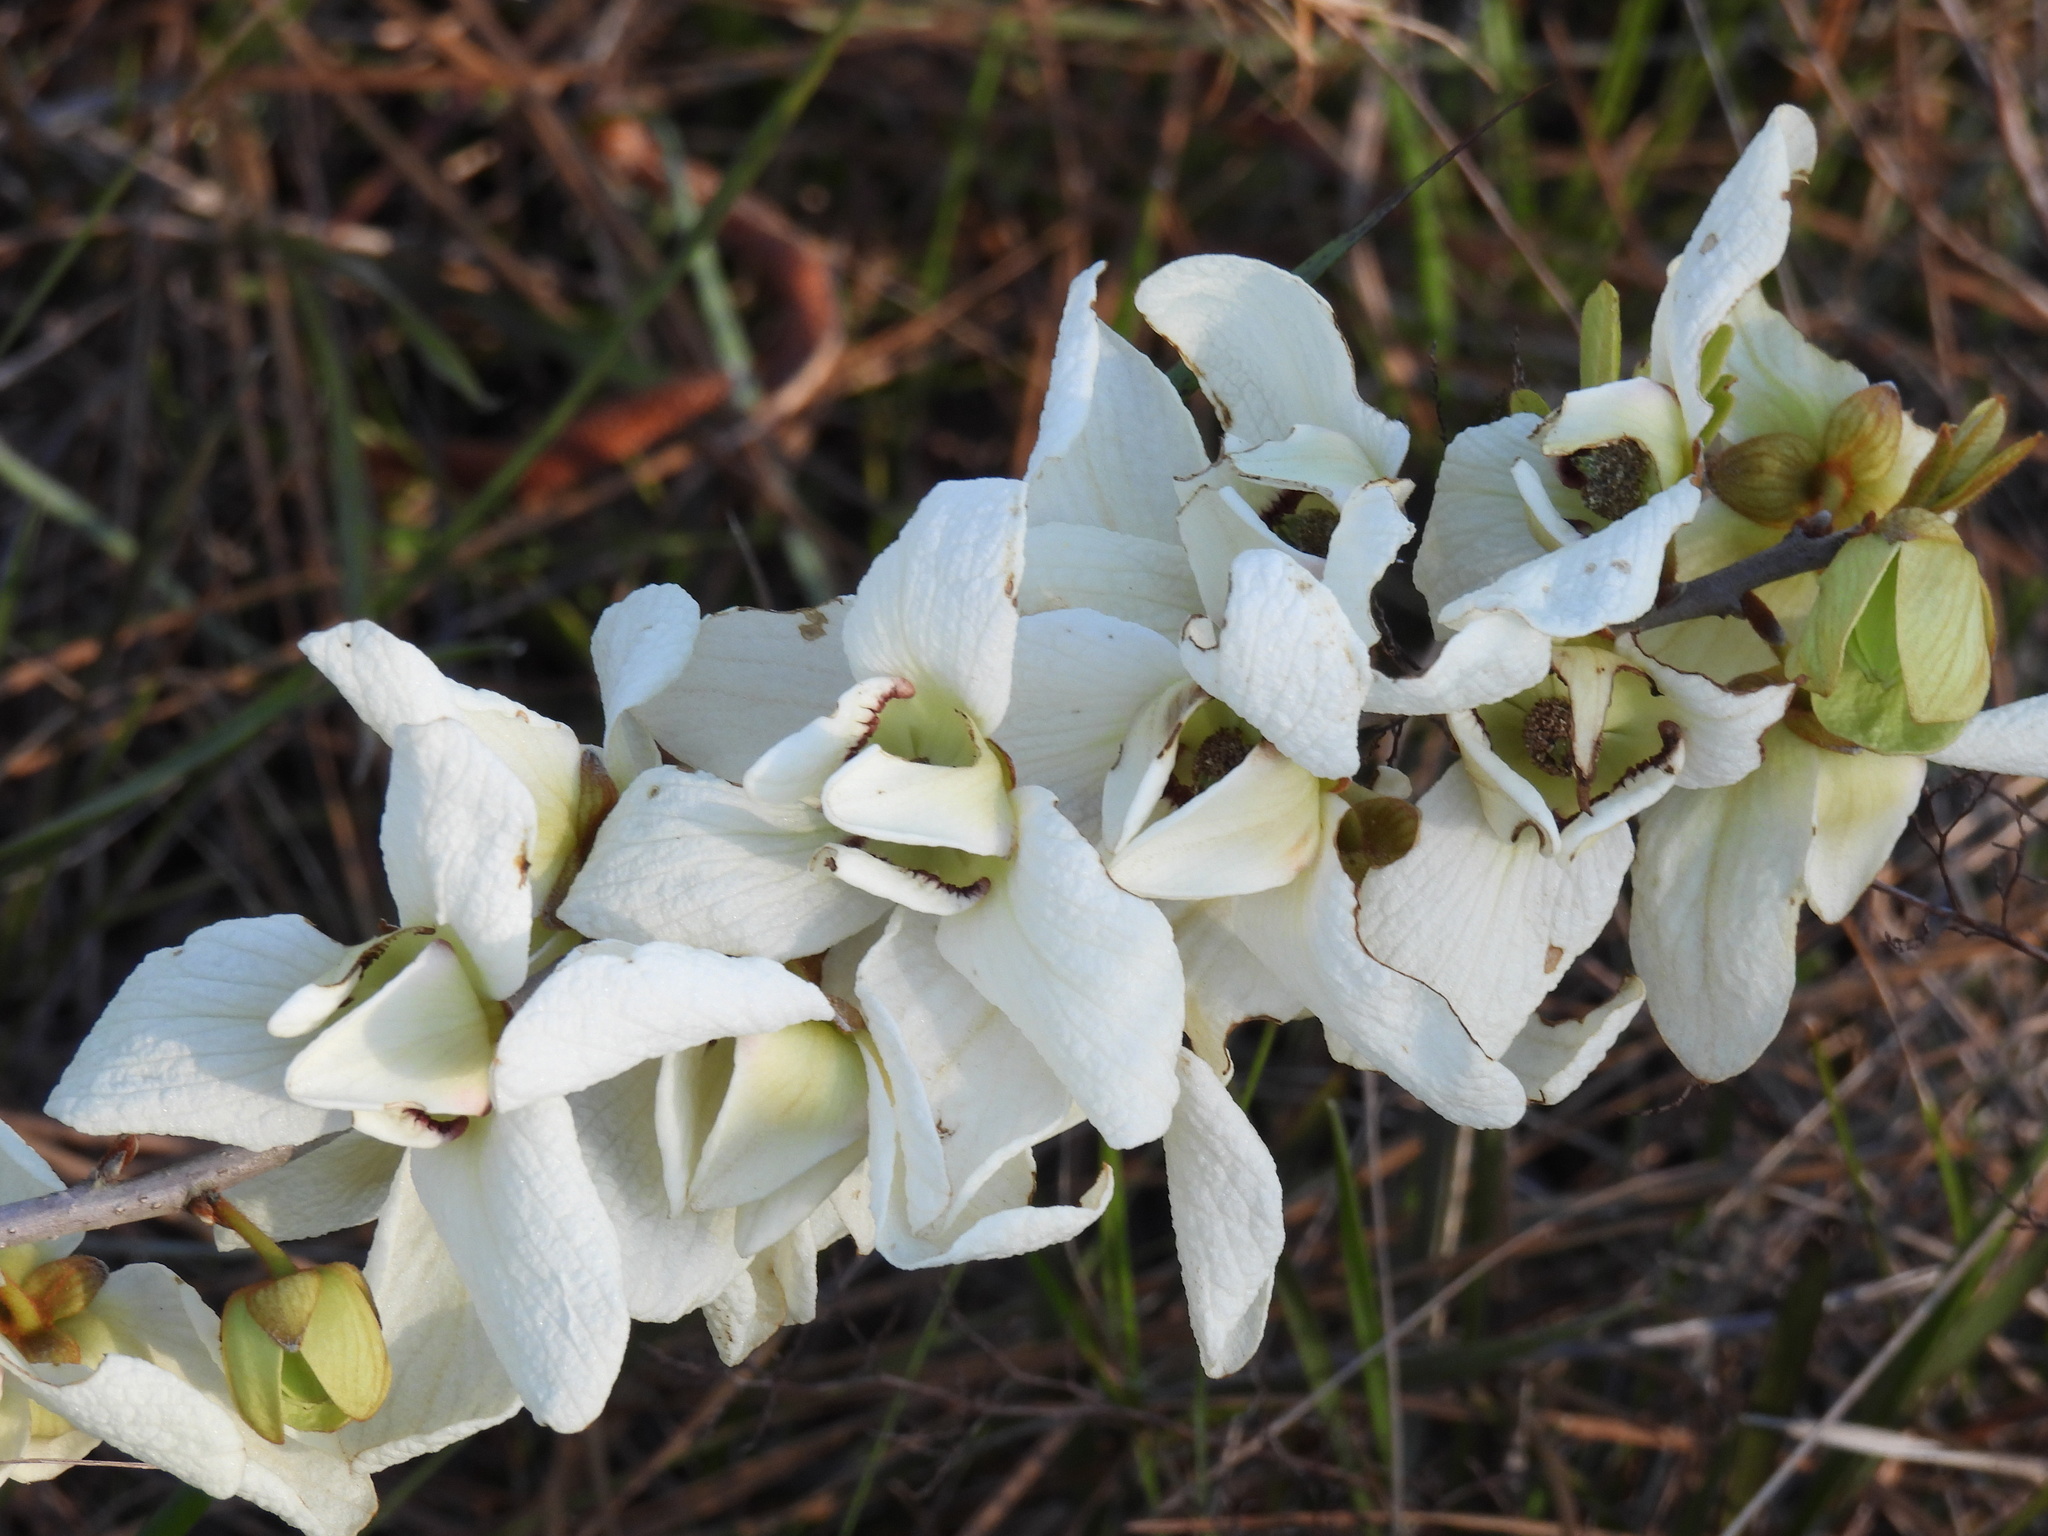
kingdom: Plantae
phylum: Tracheophyta
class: Magnoliopsida
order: Magnoliales
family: Annonaceae
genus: Asimina
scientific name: Asimina reticulata
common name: Flag pawpaw
